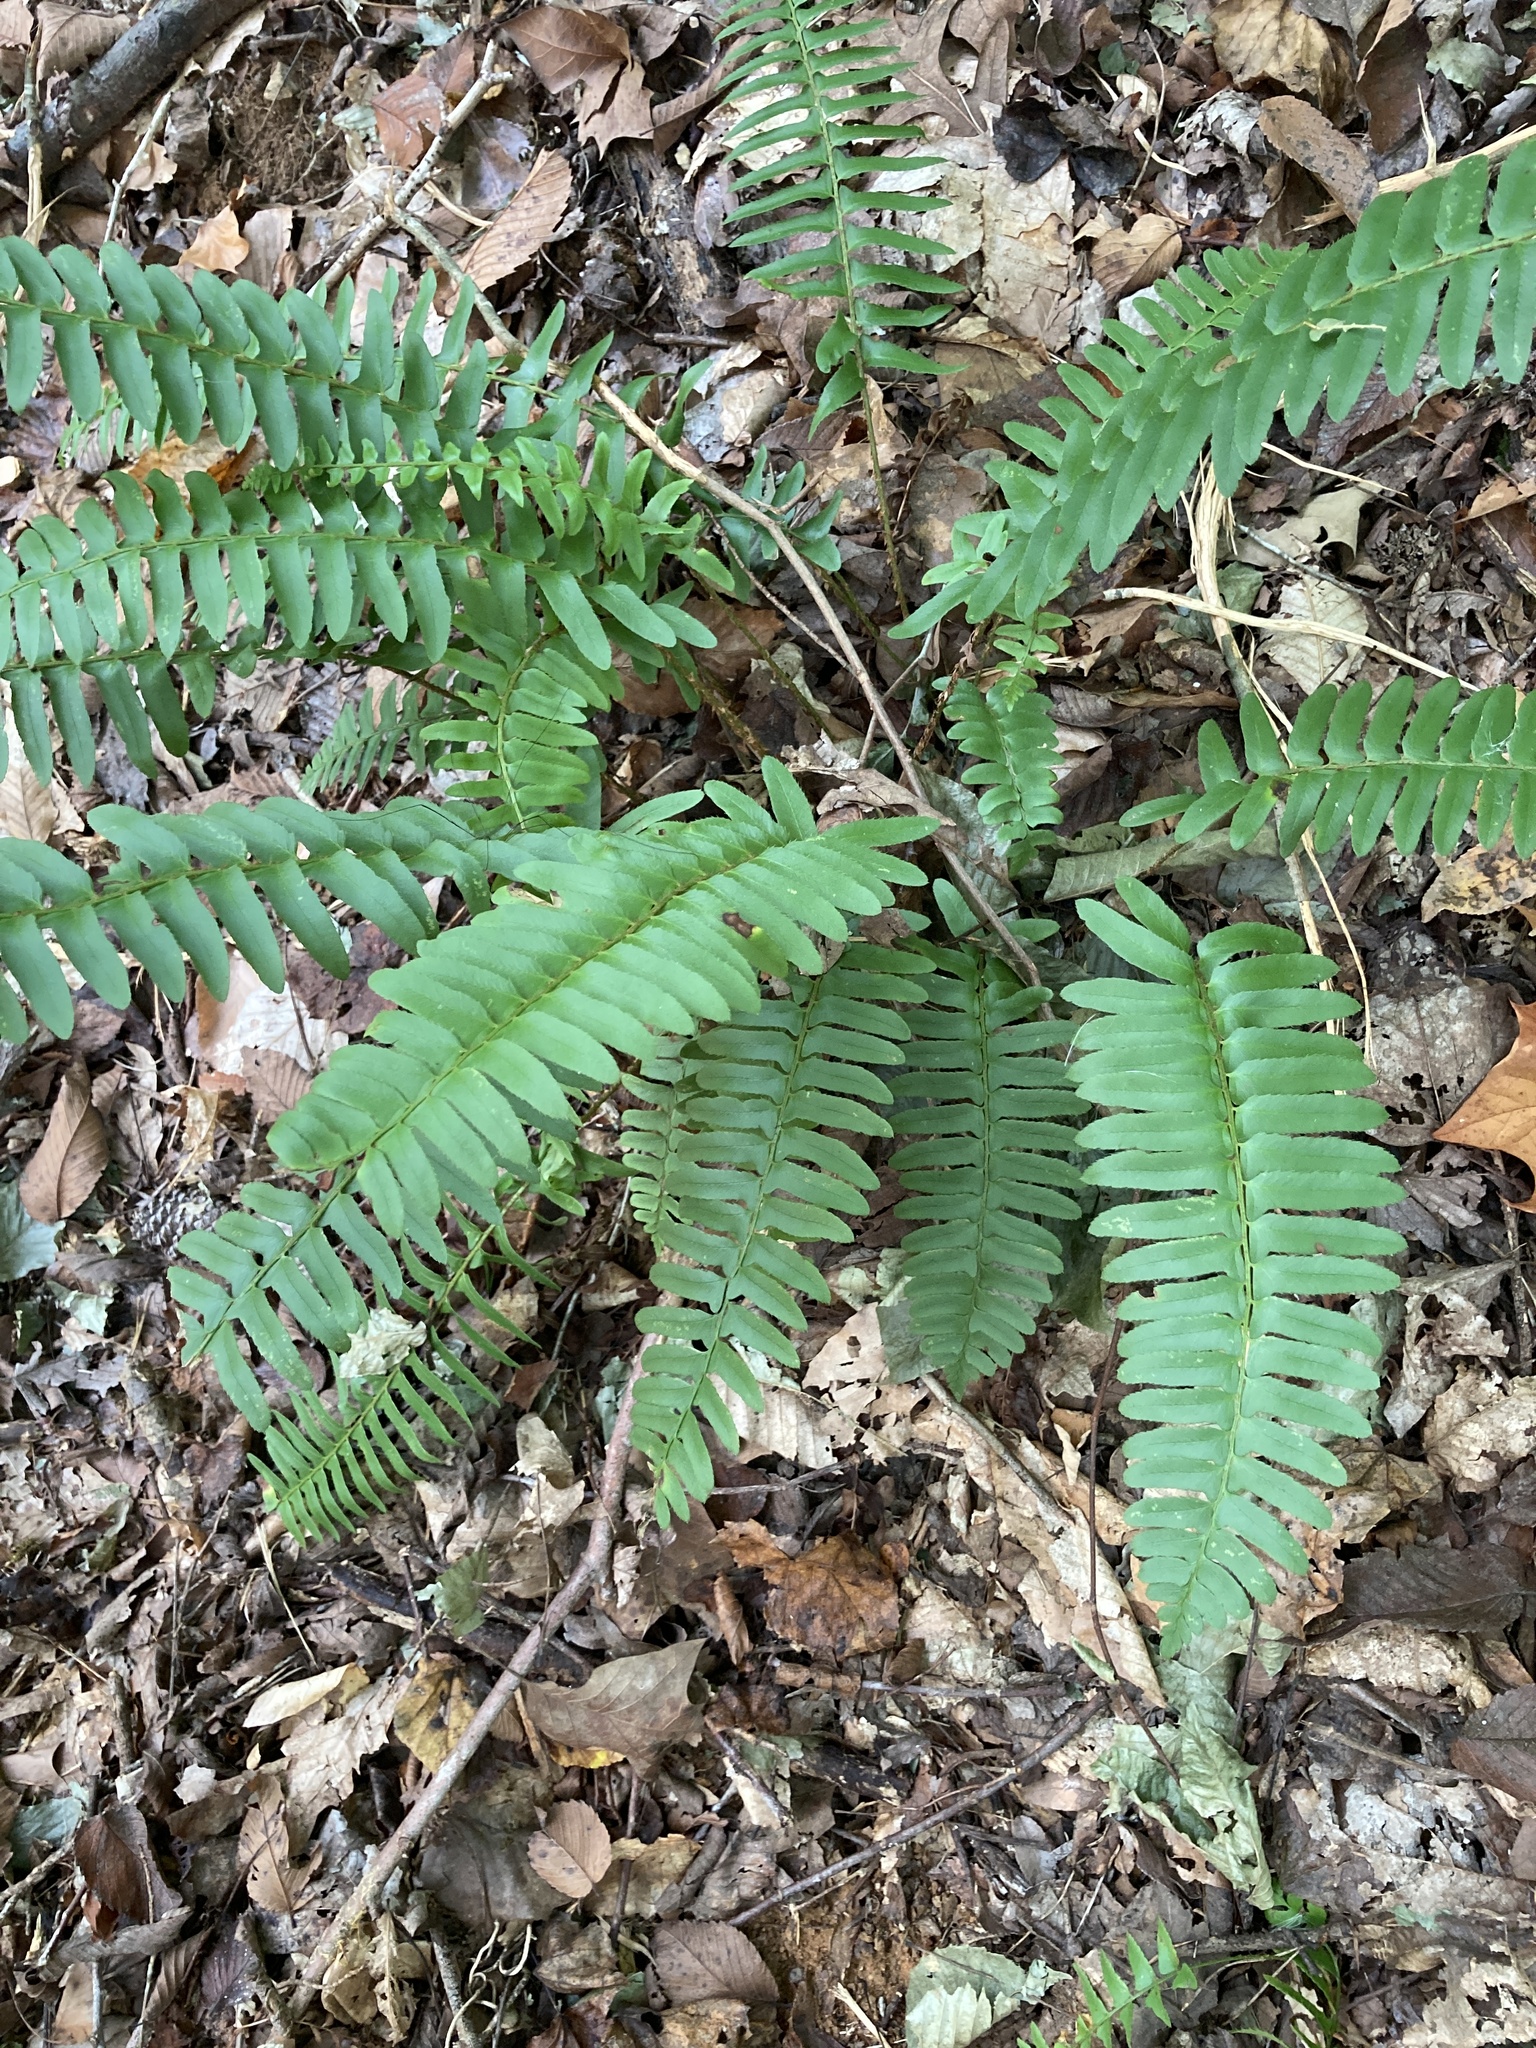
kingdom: Plantae
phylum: Tracheophyta
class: Polypodiopsida
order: Polypodiales
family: Dryopteridaceae
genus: Polystichum
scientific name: Polystichum acrostichoides
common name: Christmas fern
